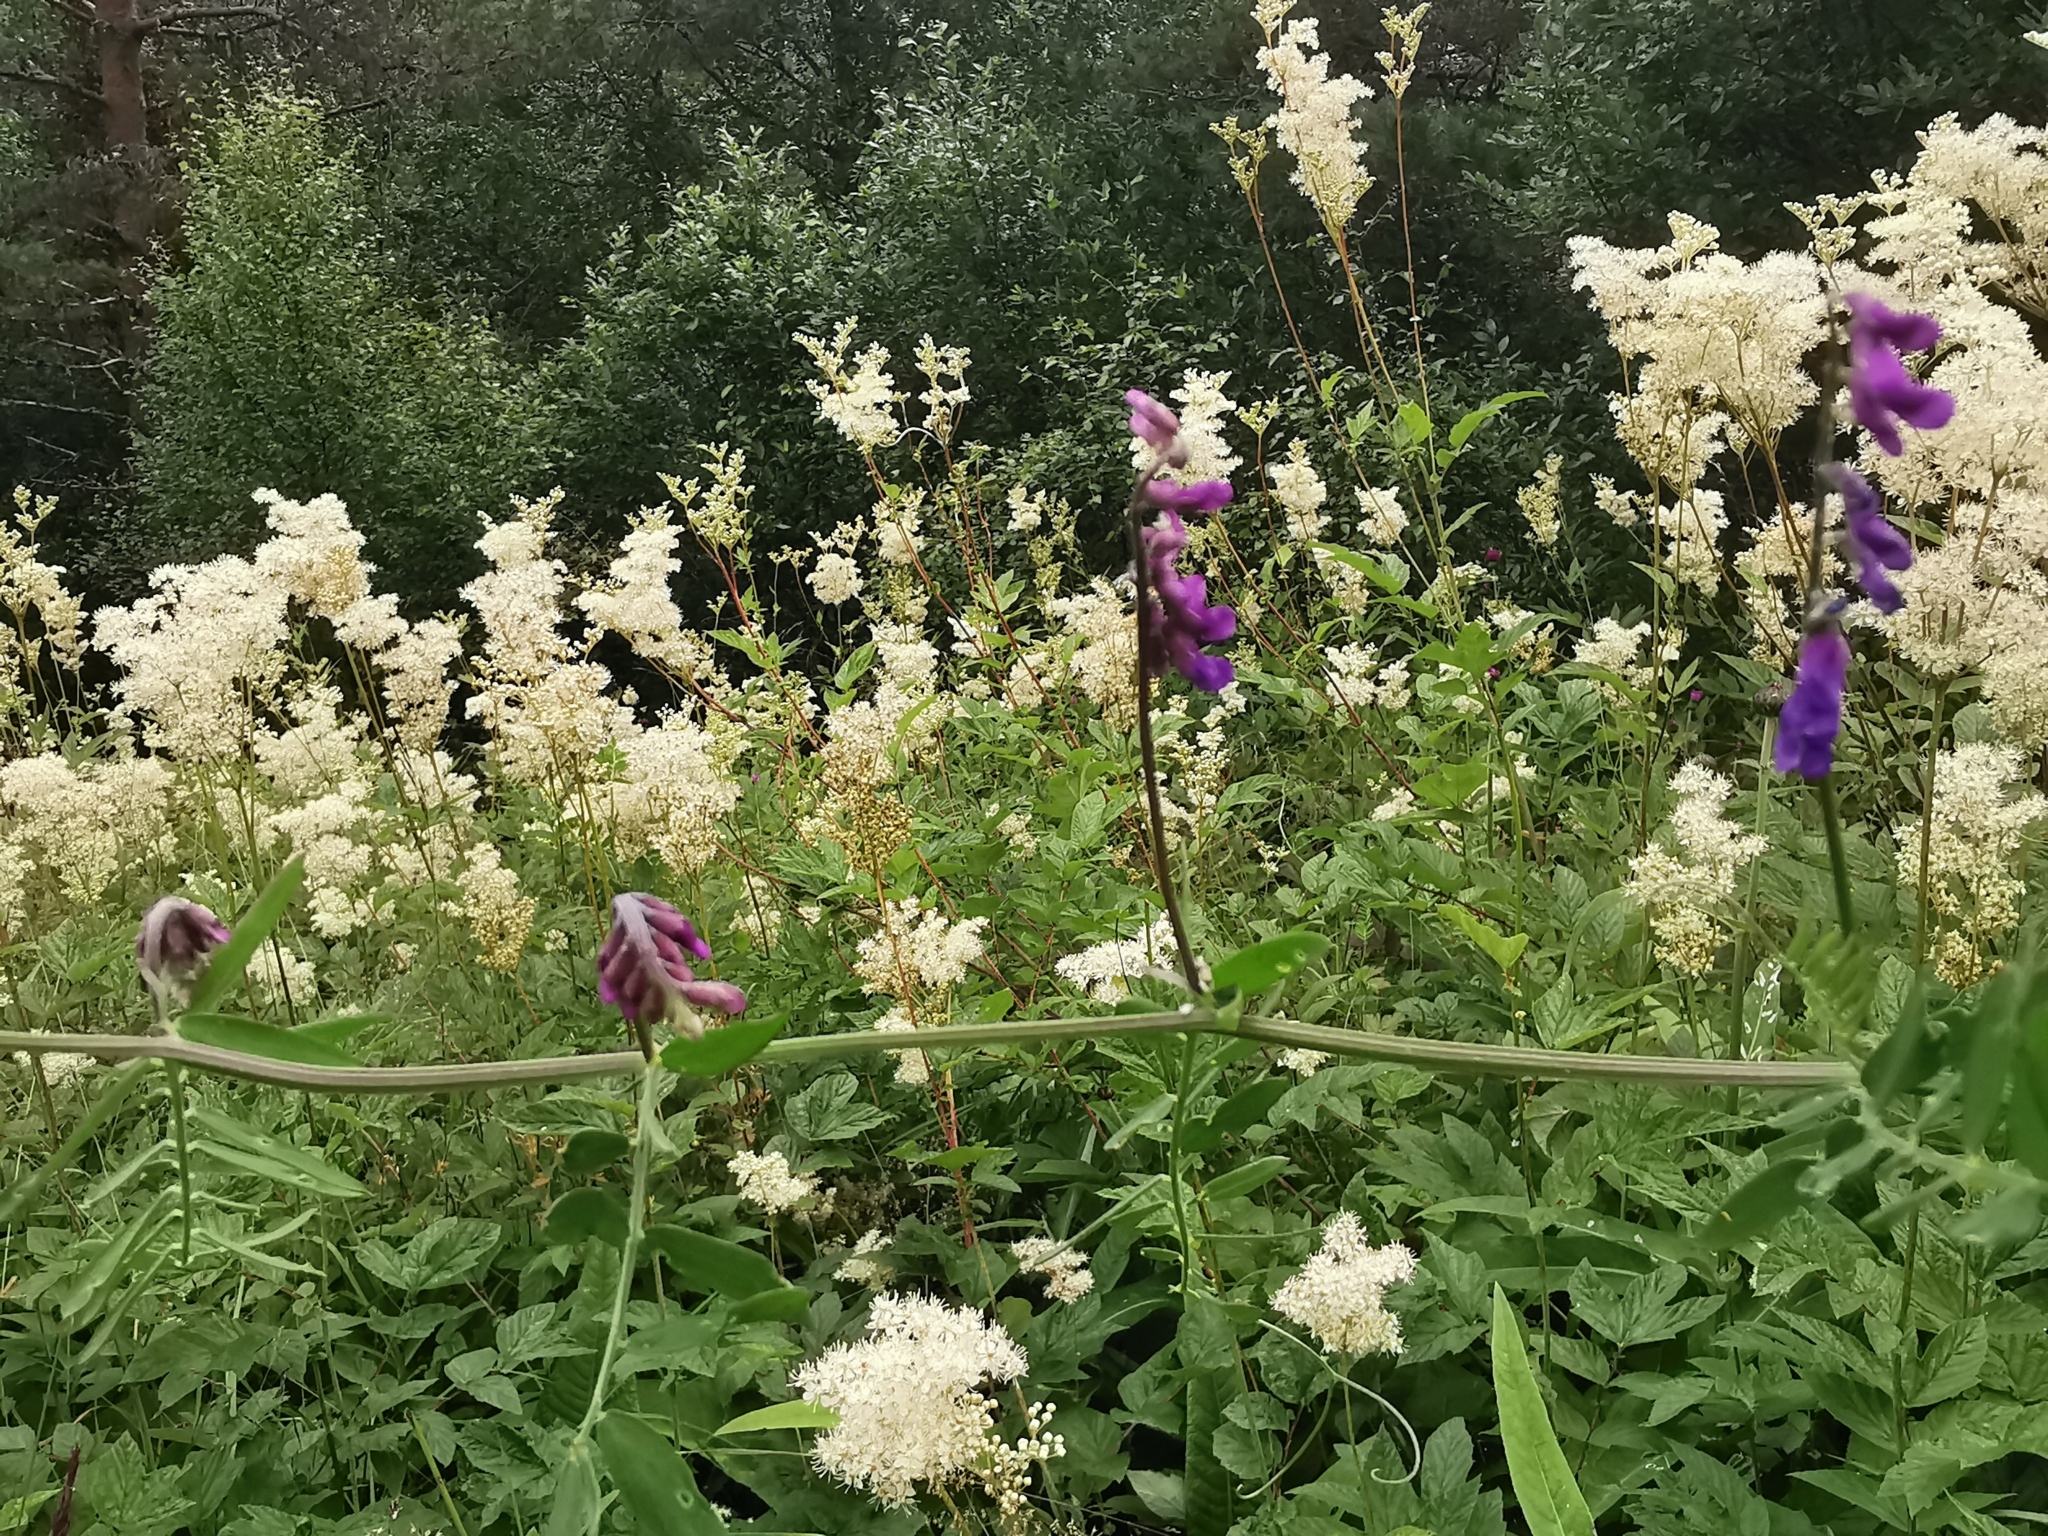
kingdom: Plantae
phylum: Tracheophyta
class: Magnoliopsida
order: Fabales
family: Fabaceae
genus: Vicia
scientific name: Vicia cracca
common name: Bird vetch
